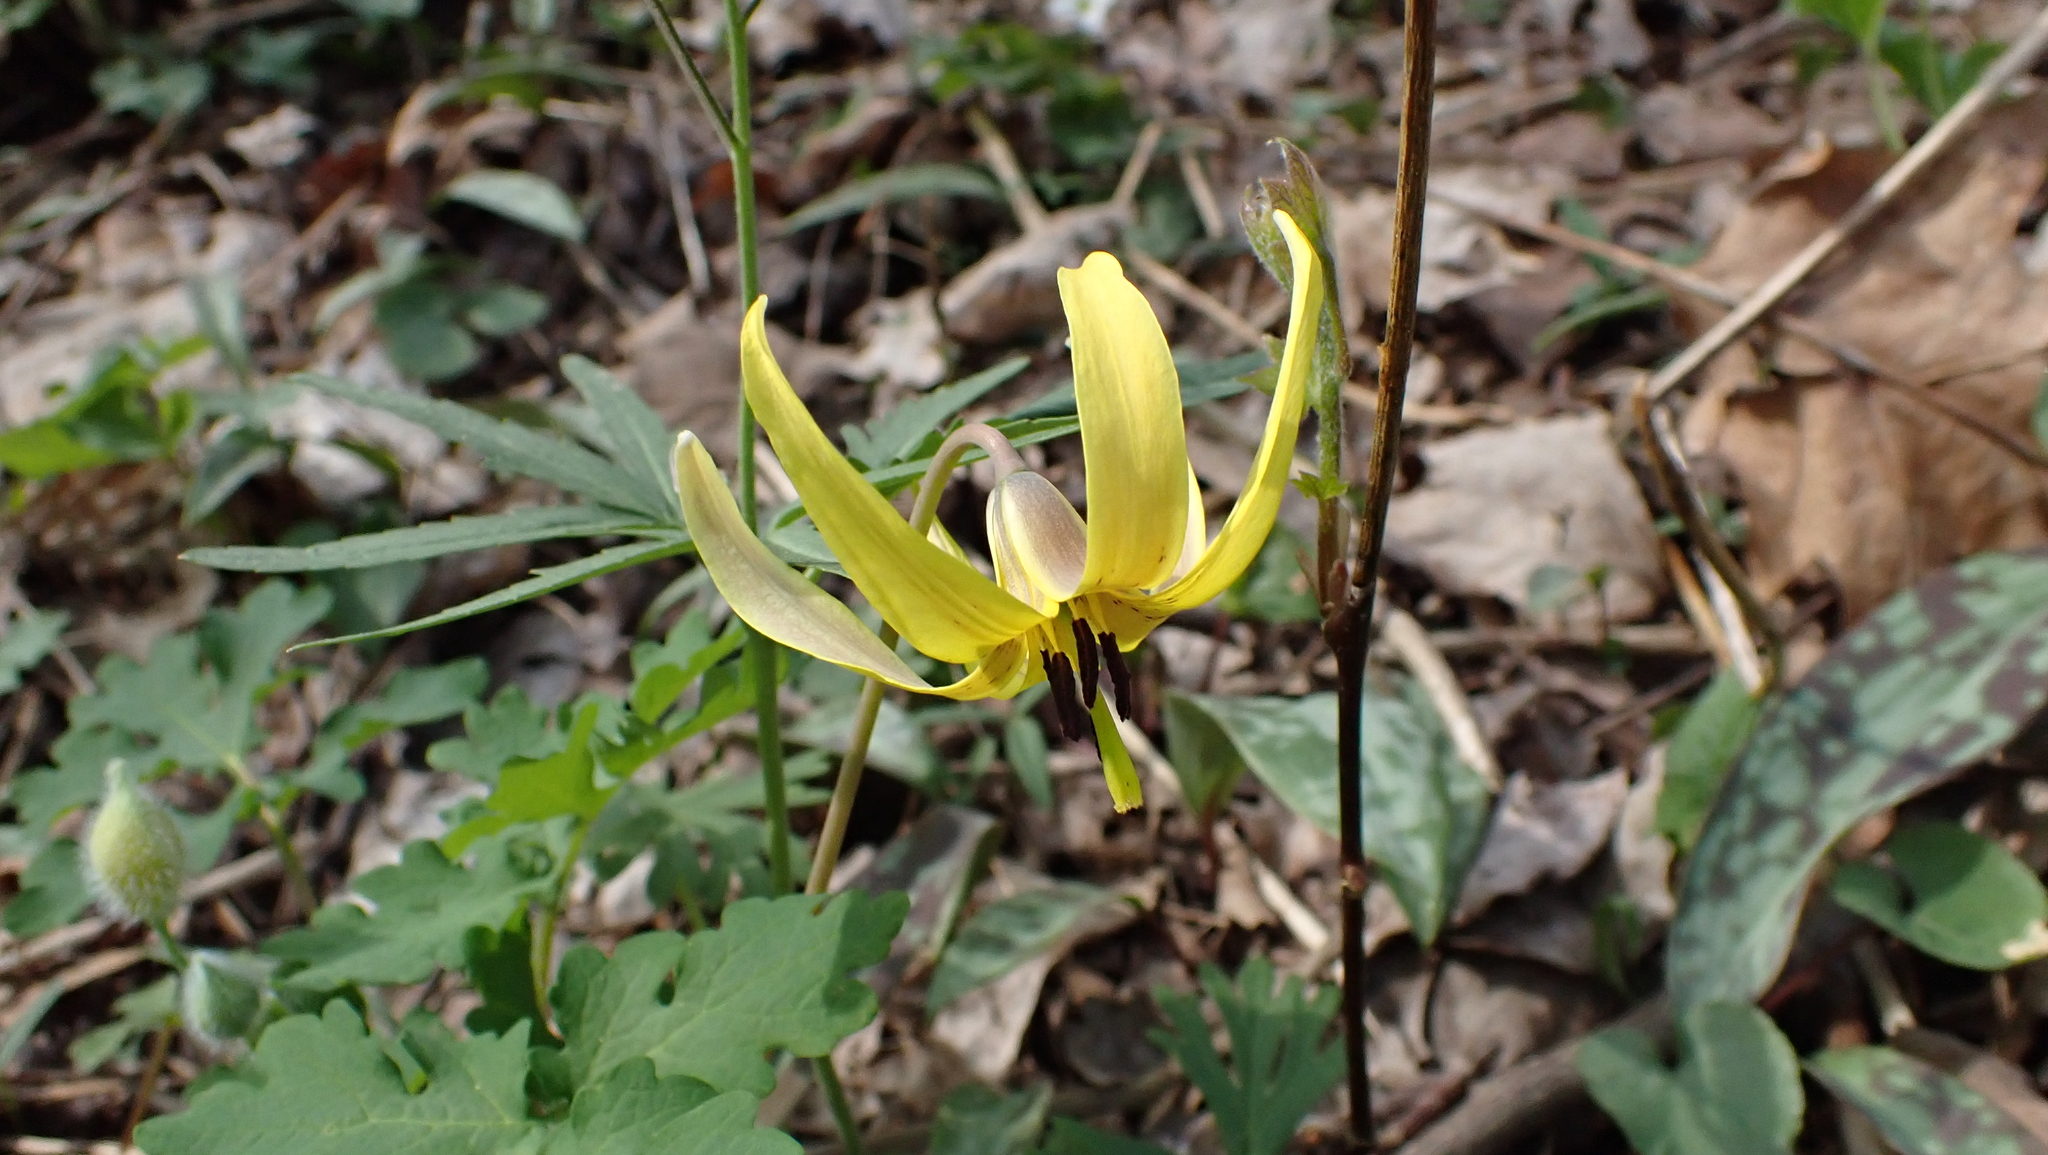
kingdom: Plantae
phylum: Tracheophyta
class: Liliopsida
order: Liliales
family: Liliaceae
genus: Erythronium
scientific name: Erythronium americanum
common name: Yellow adder's-tongue
